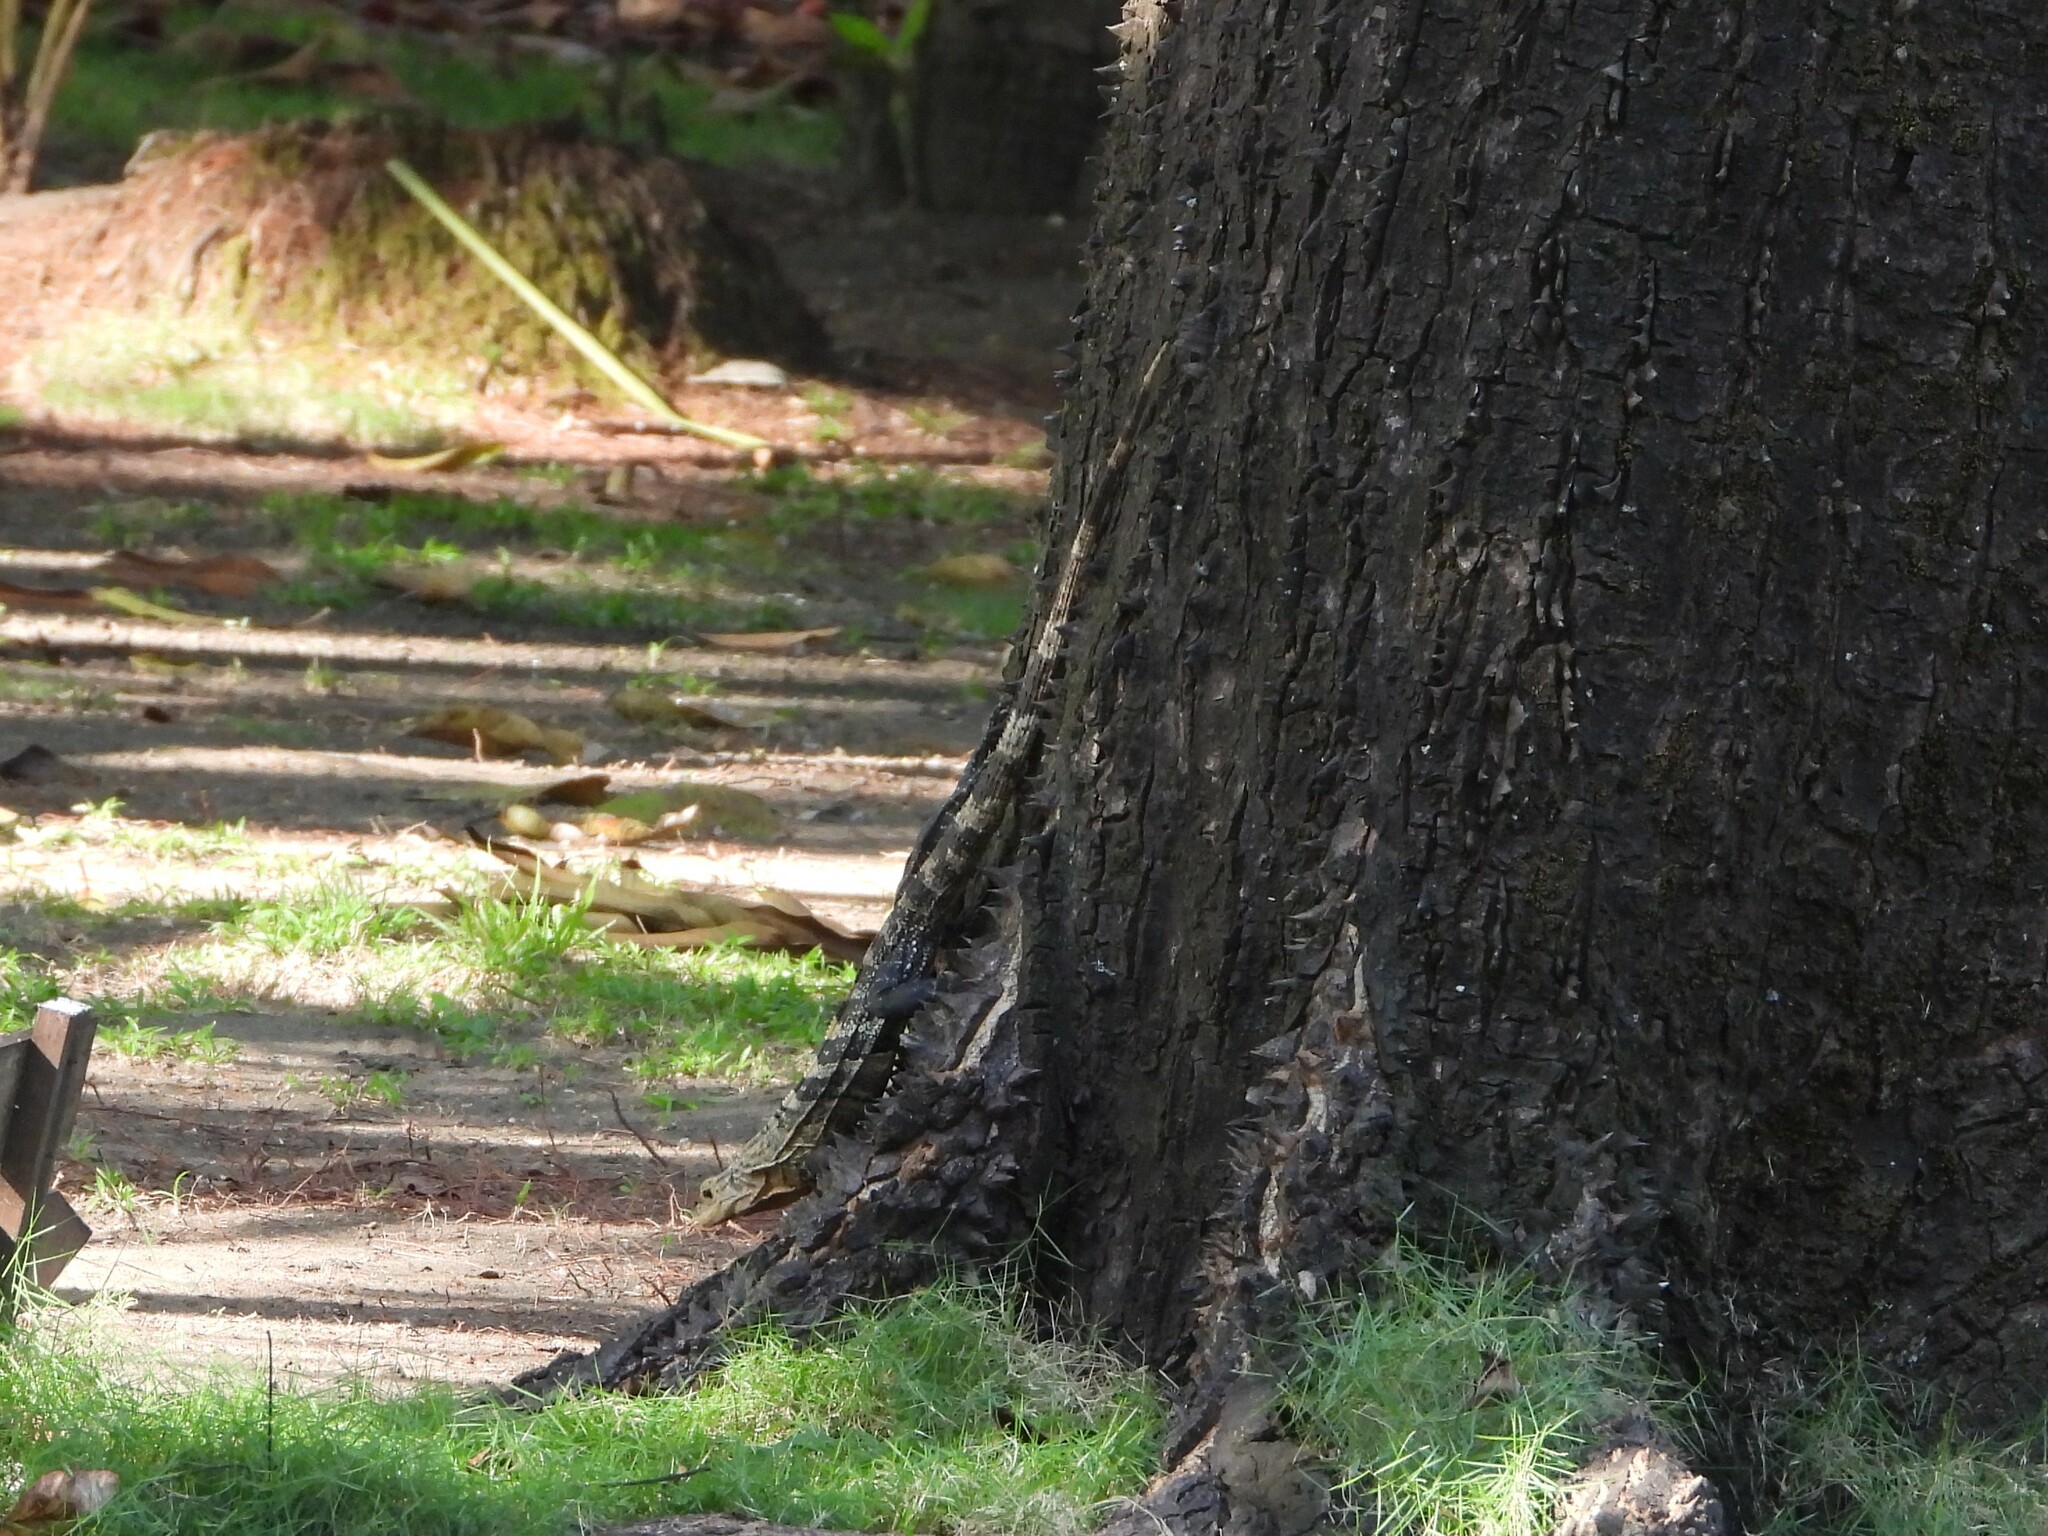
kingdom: Animalia
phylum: Chordata
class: Squamata
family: Iguanidae
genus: Ctenosaura
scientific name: Ctenosaura similis
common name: Black spiny-tailed iguana
